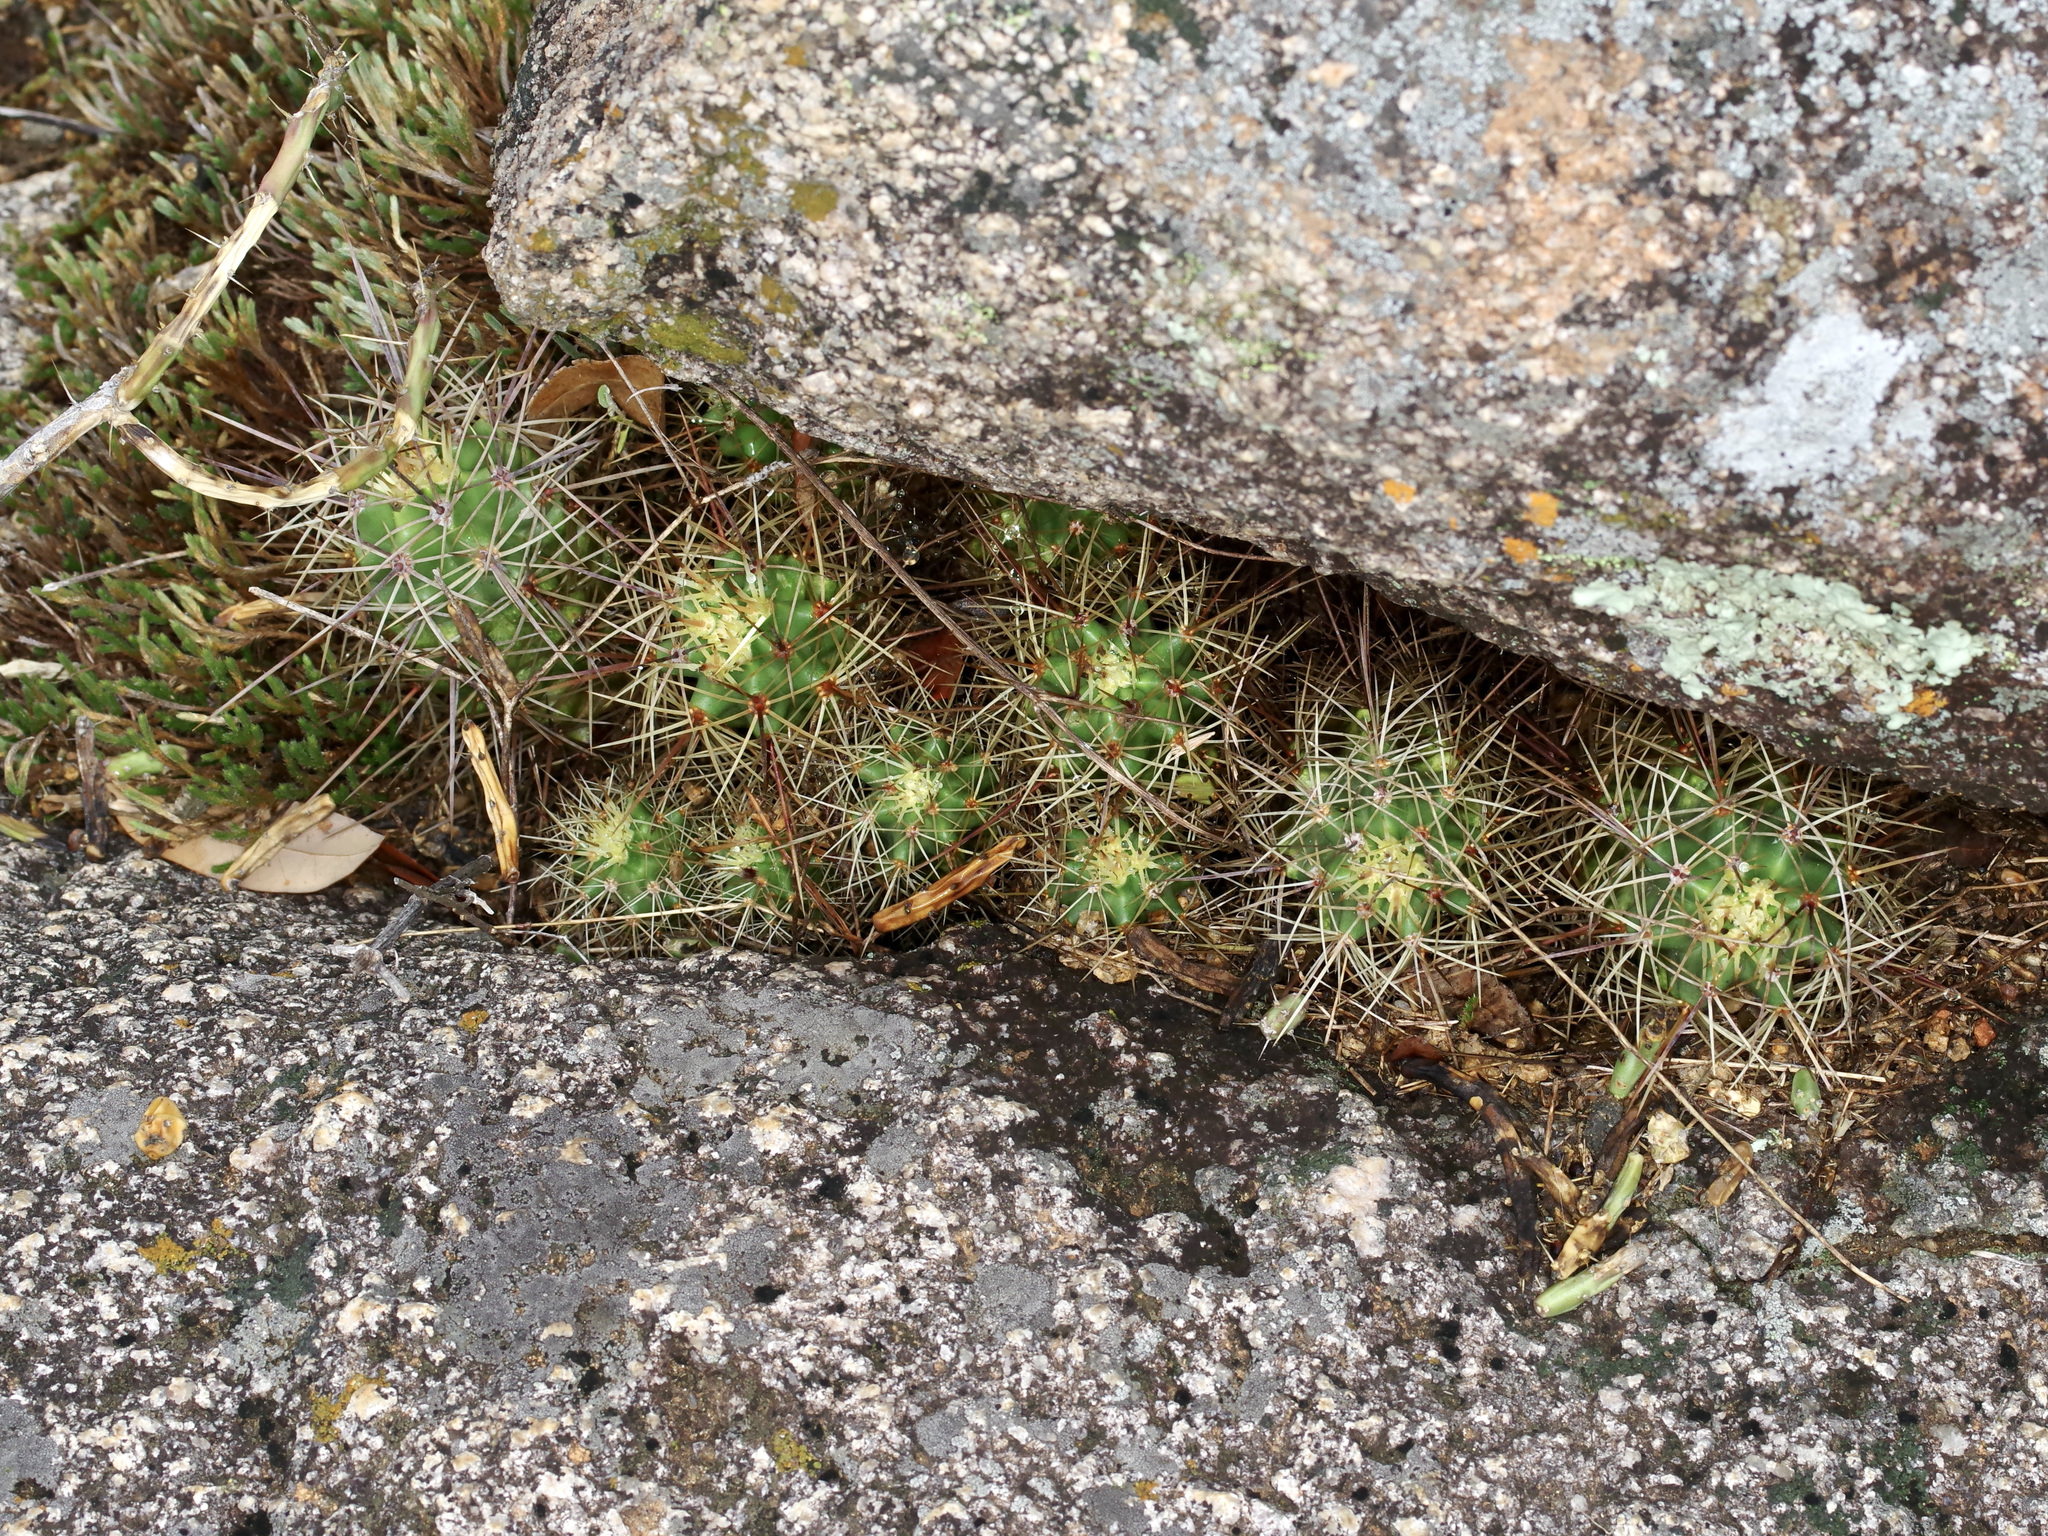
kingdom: Plantae
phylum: Tracheophyta
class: Magnoliopsida
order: Caryophyllales
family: Cactaceae
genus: Echinocereus
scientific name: Echinocereus coccineus
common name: Scarlet hedgehog cactus
